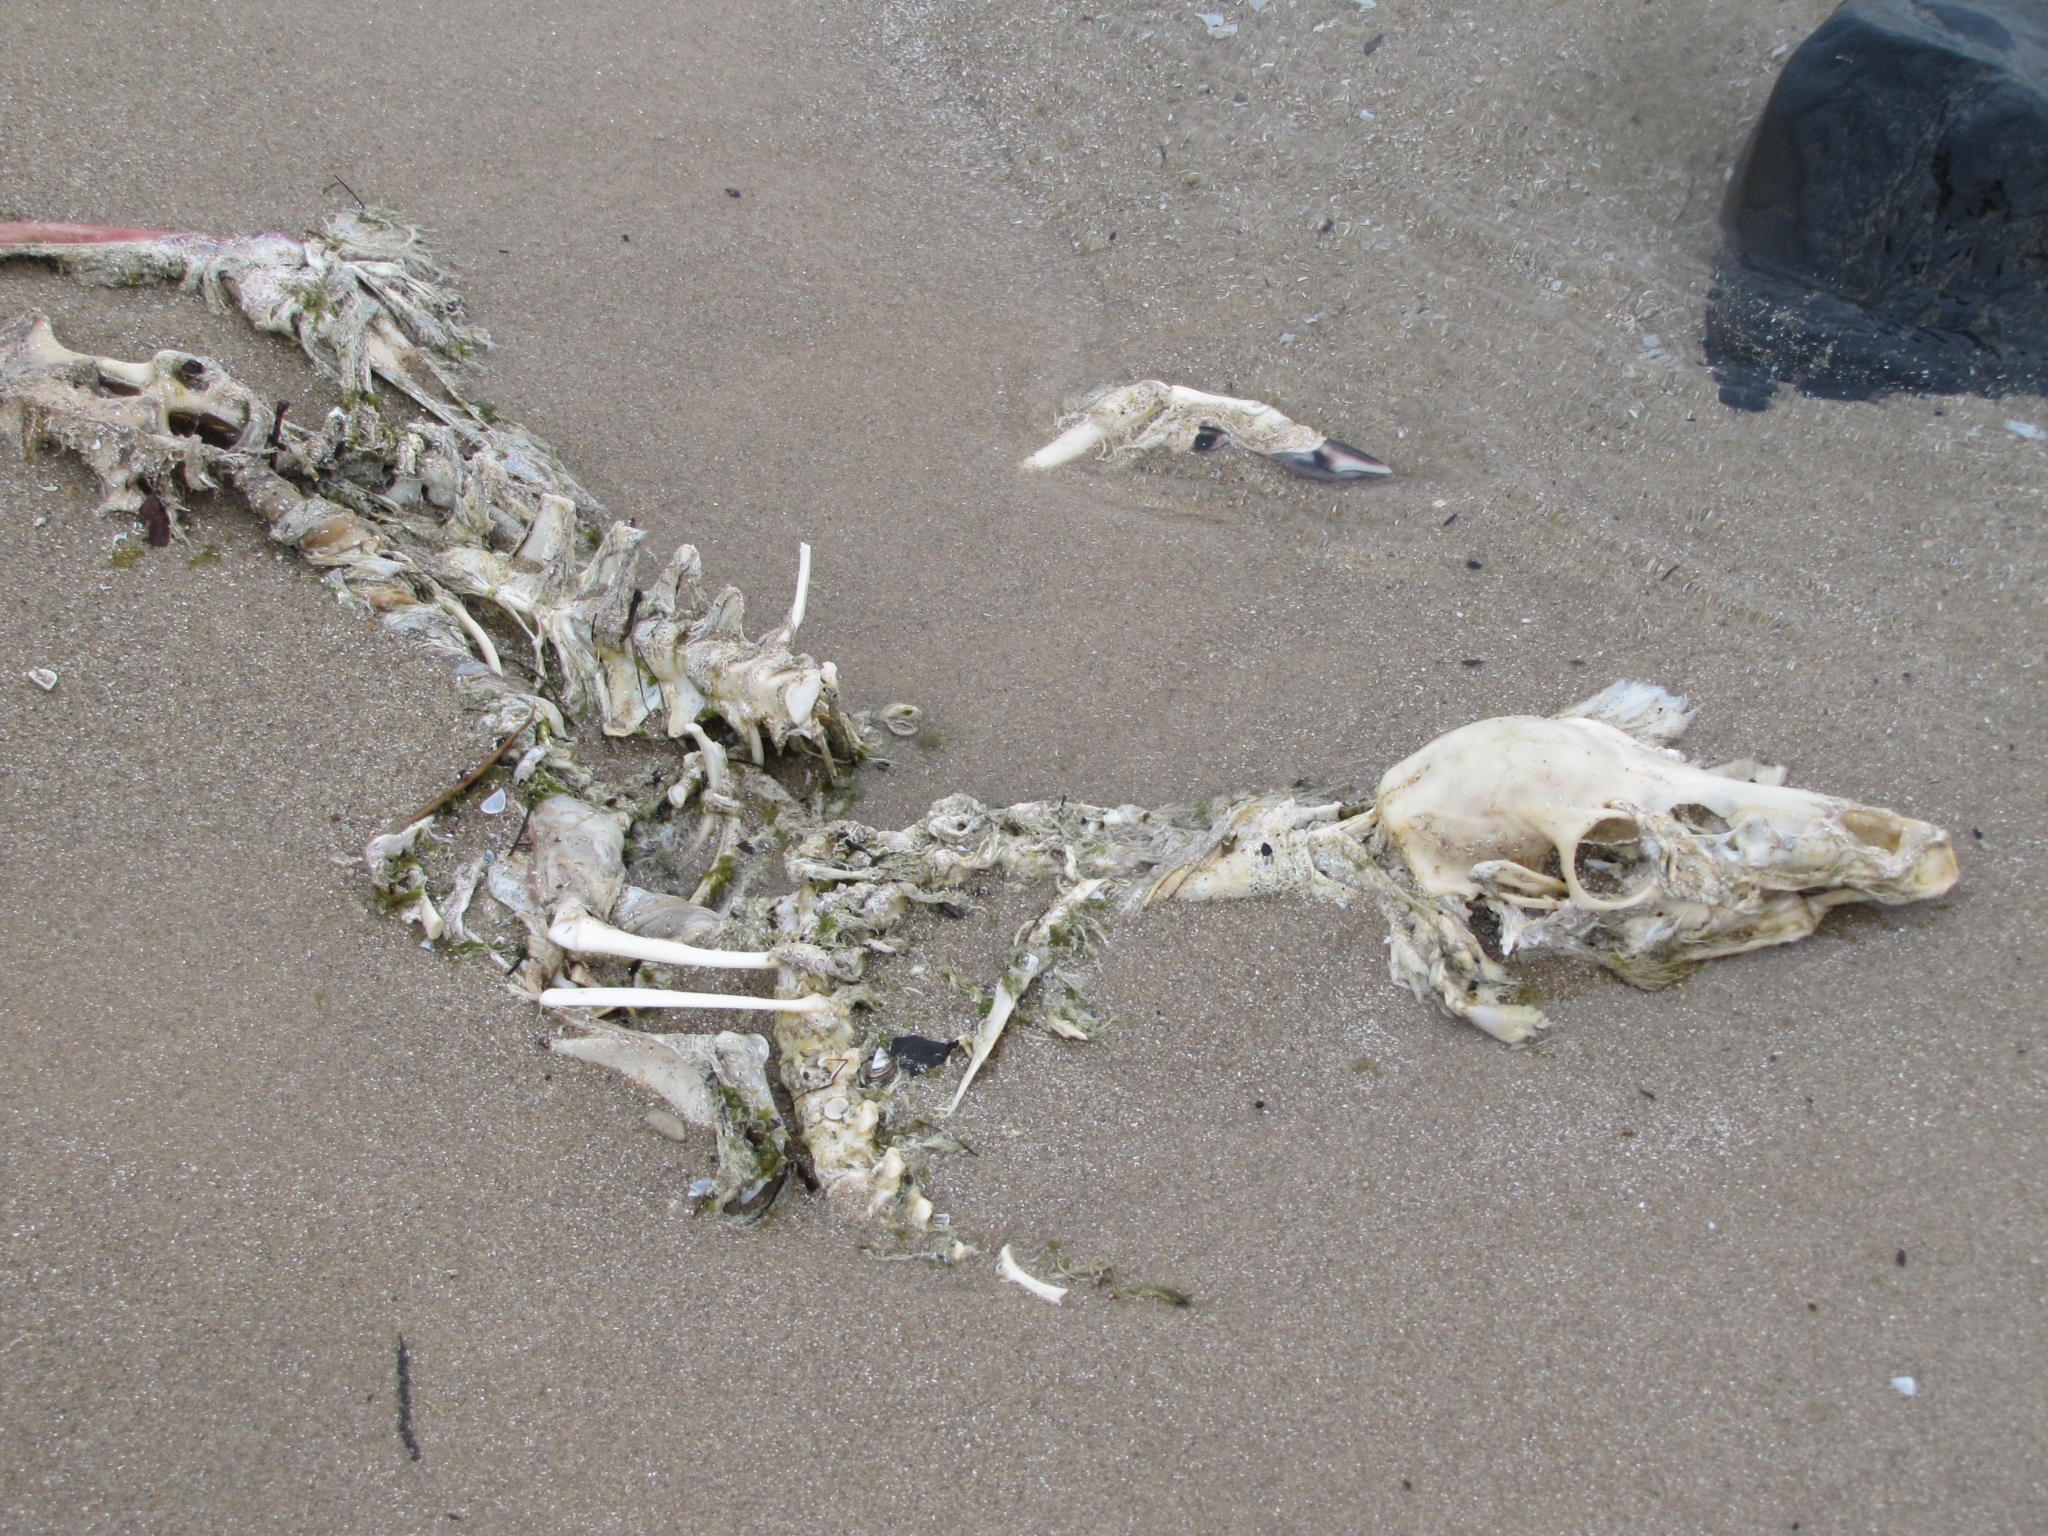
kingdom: Animalia
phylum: Chordata
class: Mammalia
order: Artiodactyla
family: Cervidae
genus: Odocoileus
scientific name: Odocoileus virginianus
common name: White-tailed deer
